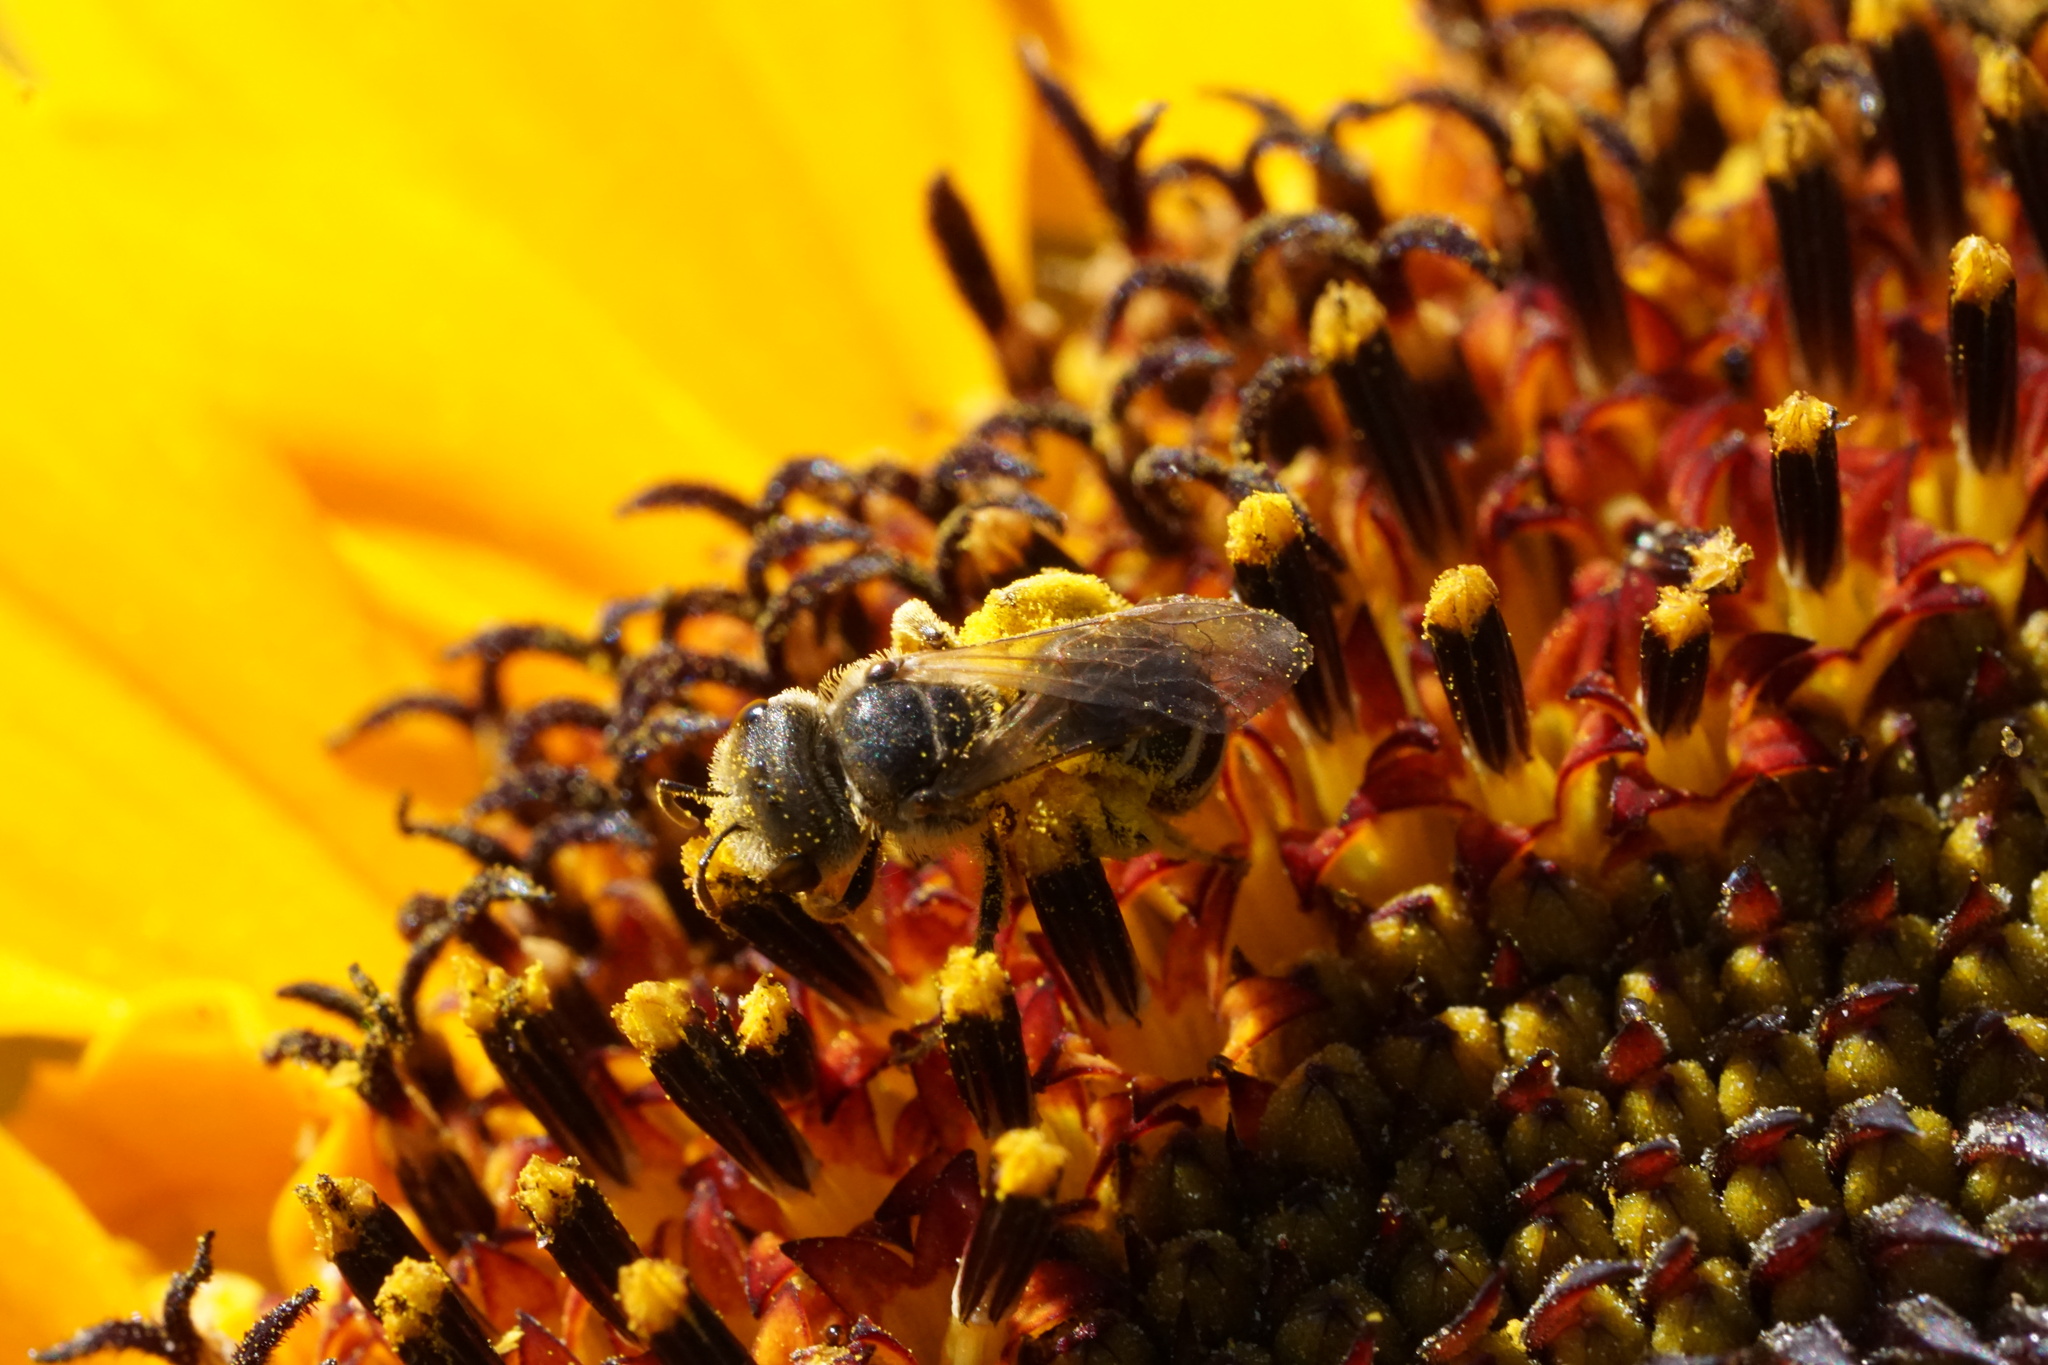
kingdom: Animalia
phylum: Arthropoda
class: Insecta
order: Hymenoptera
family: Halictidae
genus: Halictus
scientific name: Halictus ligatus
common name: Ligated furrow bee
